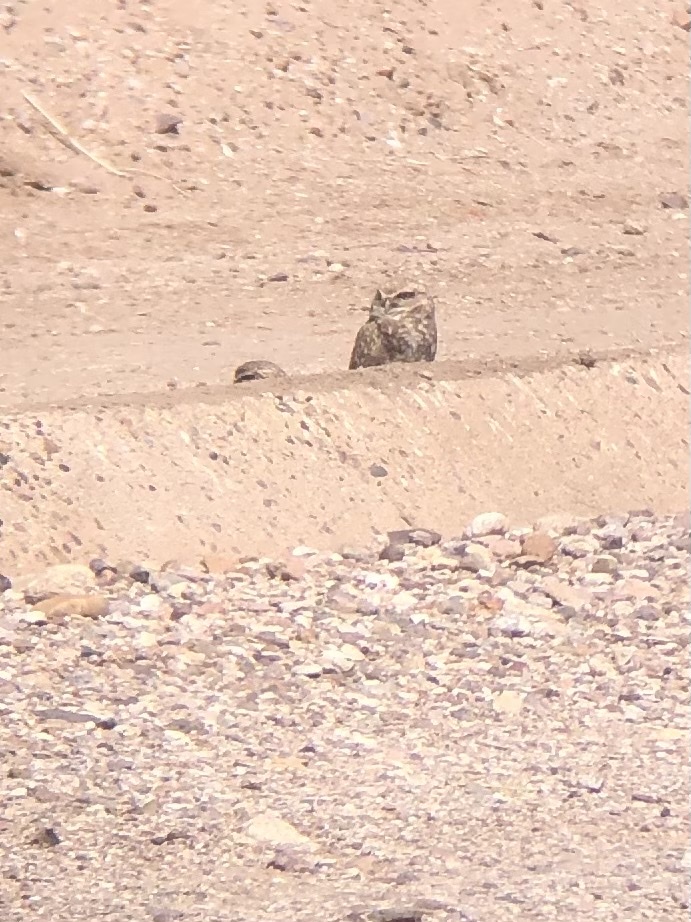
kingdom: Animalia
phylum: Chordata
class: Aves
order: Strigiformes
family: Strigidae
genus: Athene
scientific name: Athene cunicularia
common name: Burrowing owl
